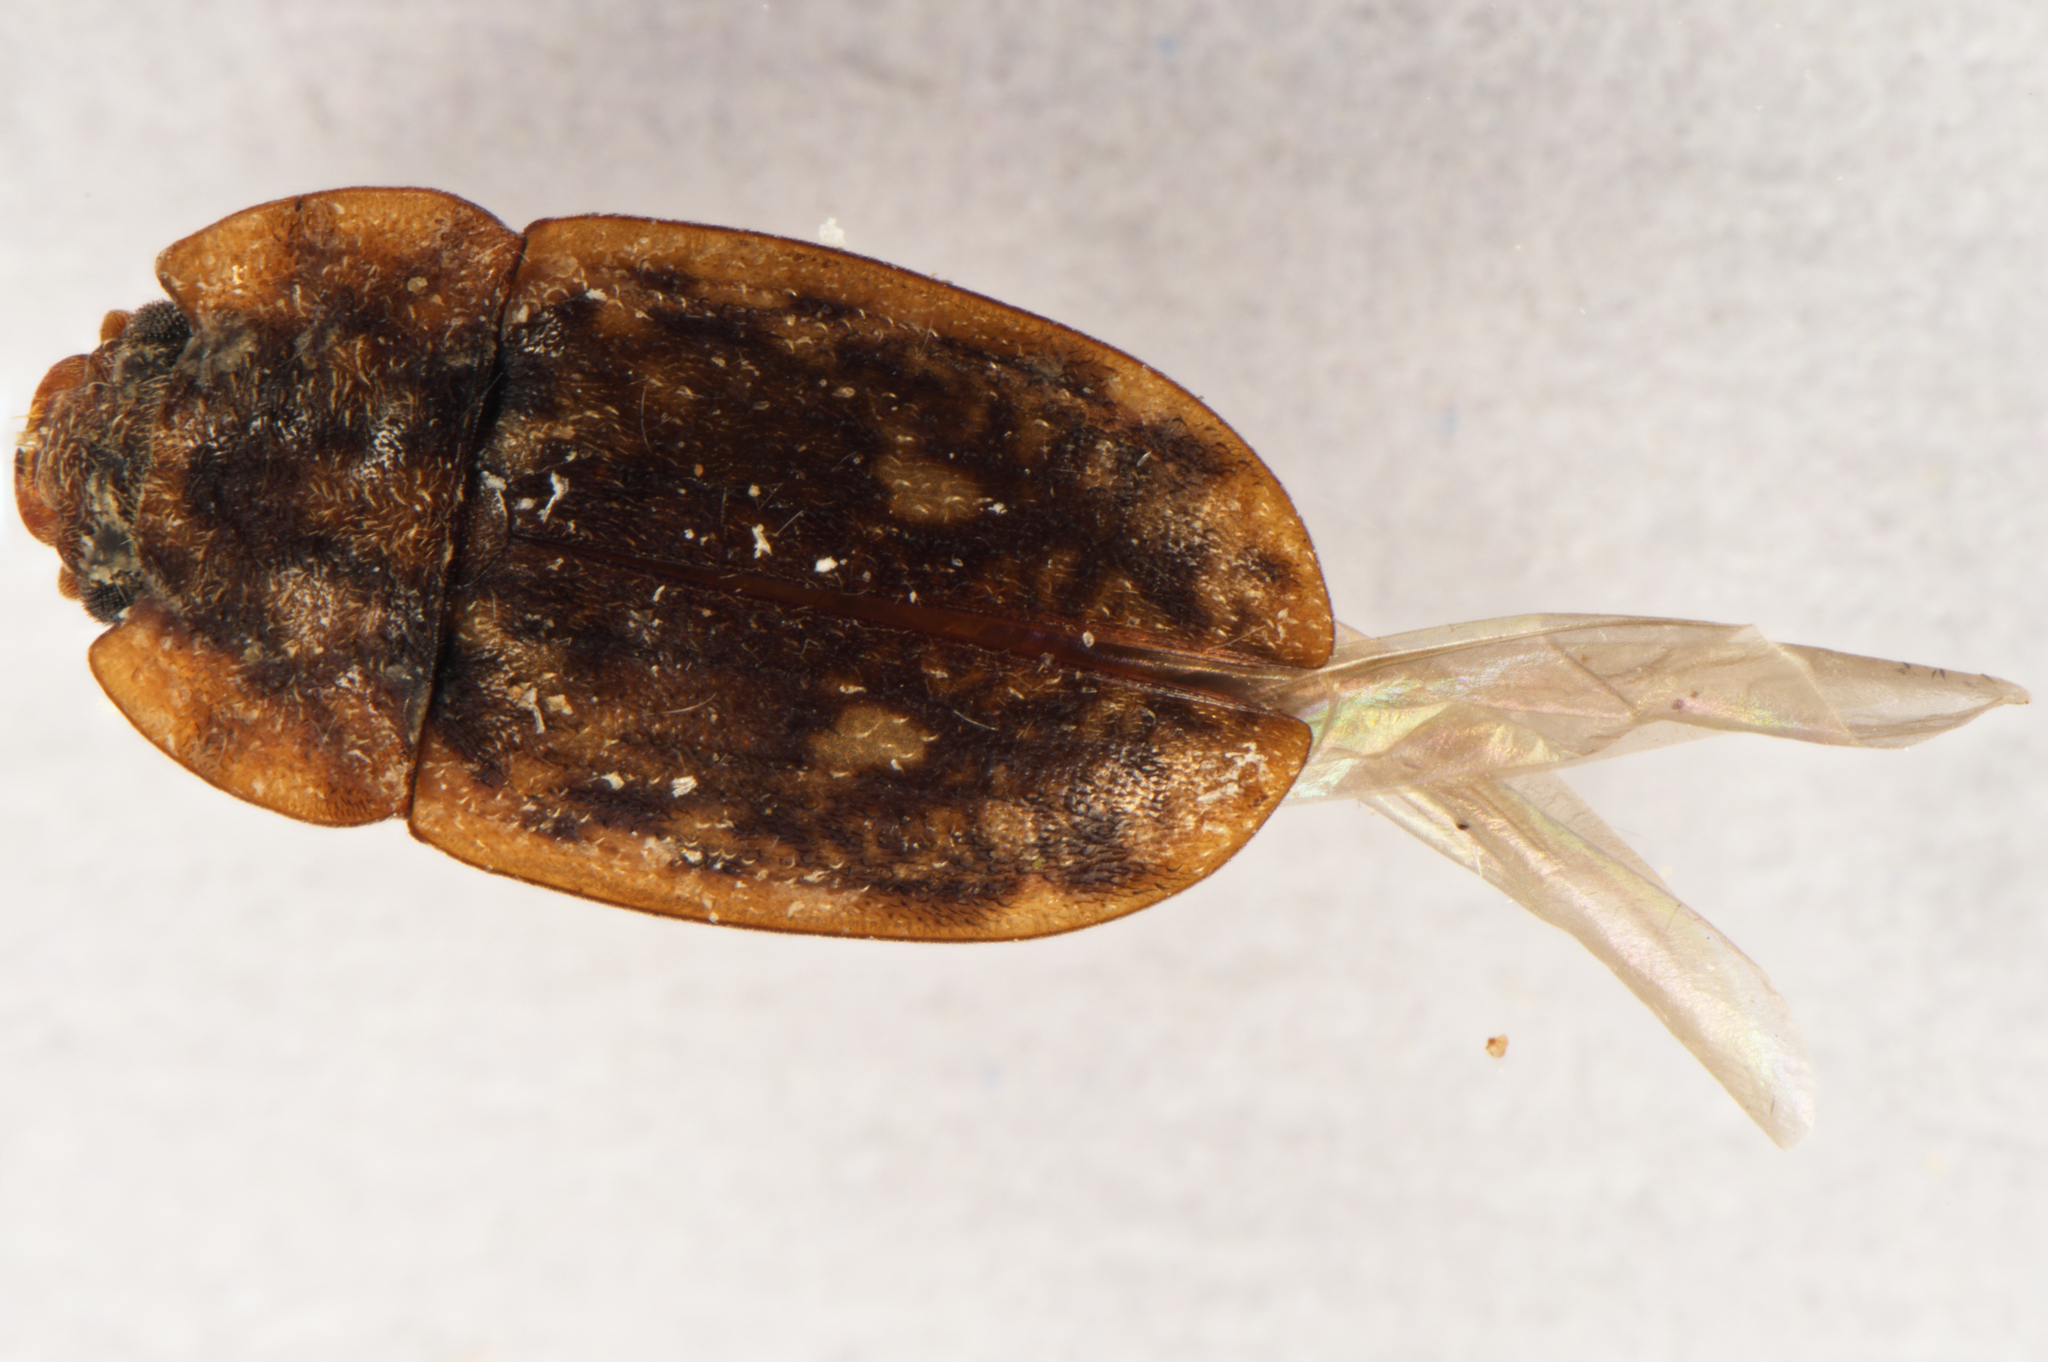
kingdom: Animalia
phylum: Arthropoda
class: Insecta
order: Coleoptera
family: Nitidulidae
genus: Soronia
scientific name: Soronia
